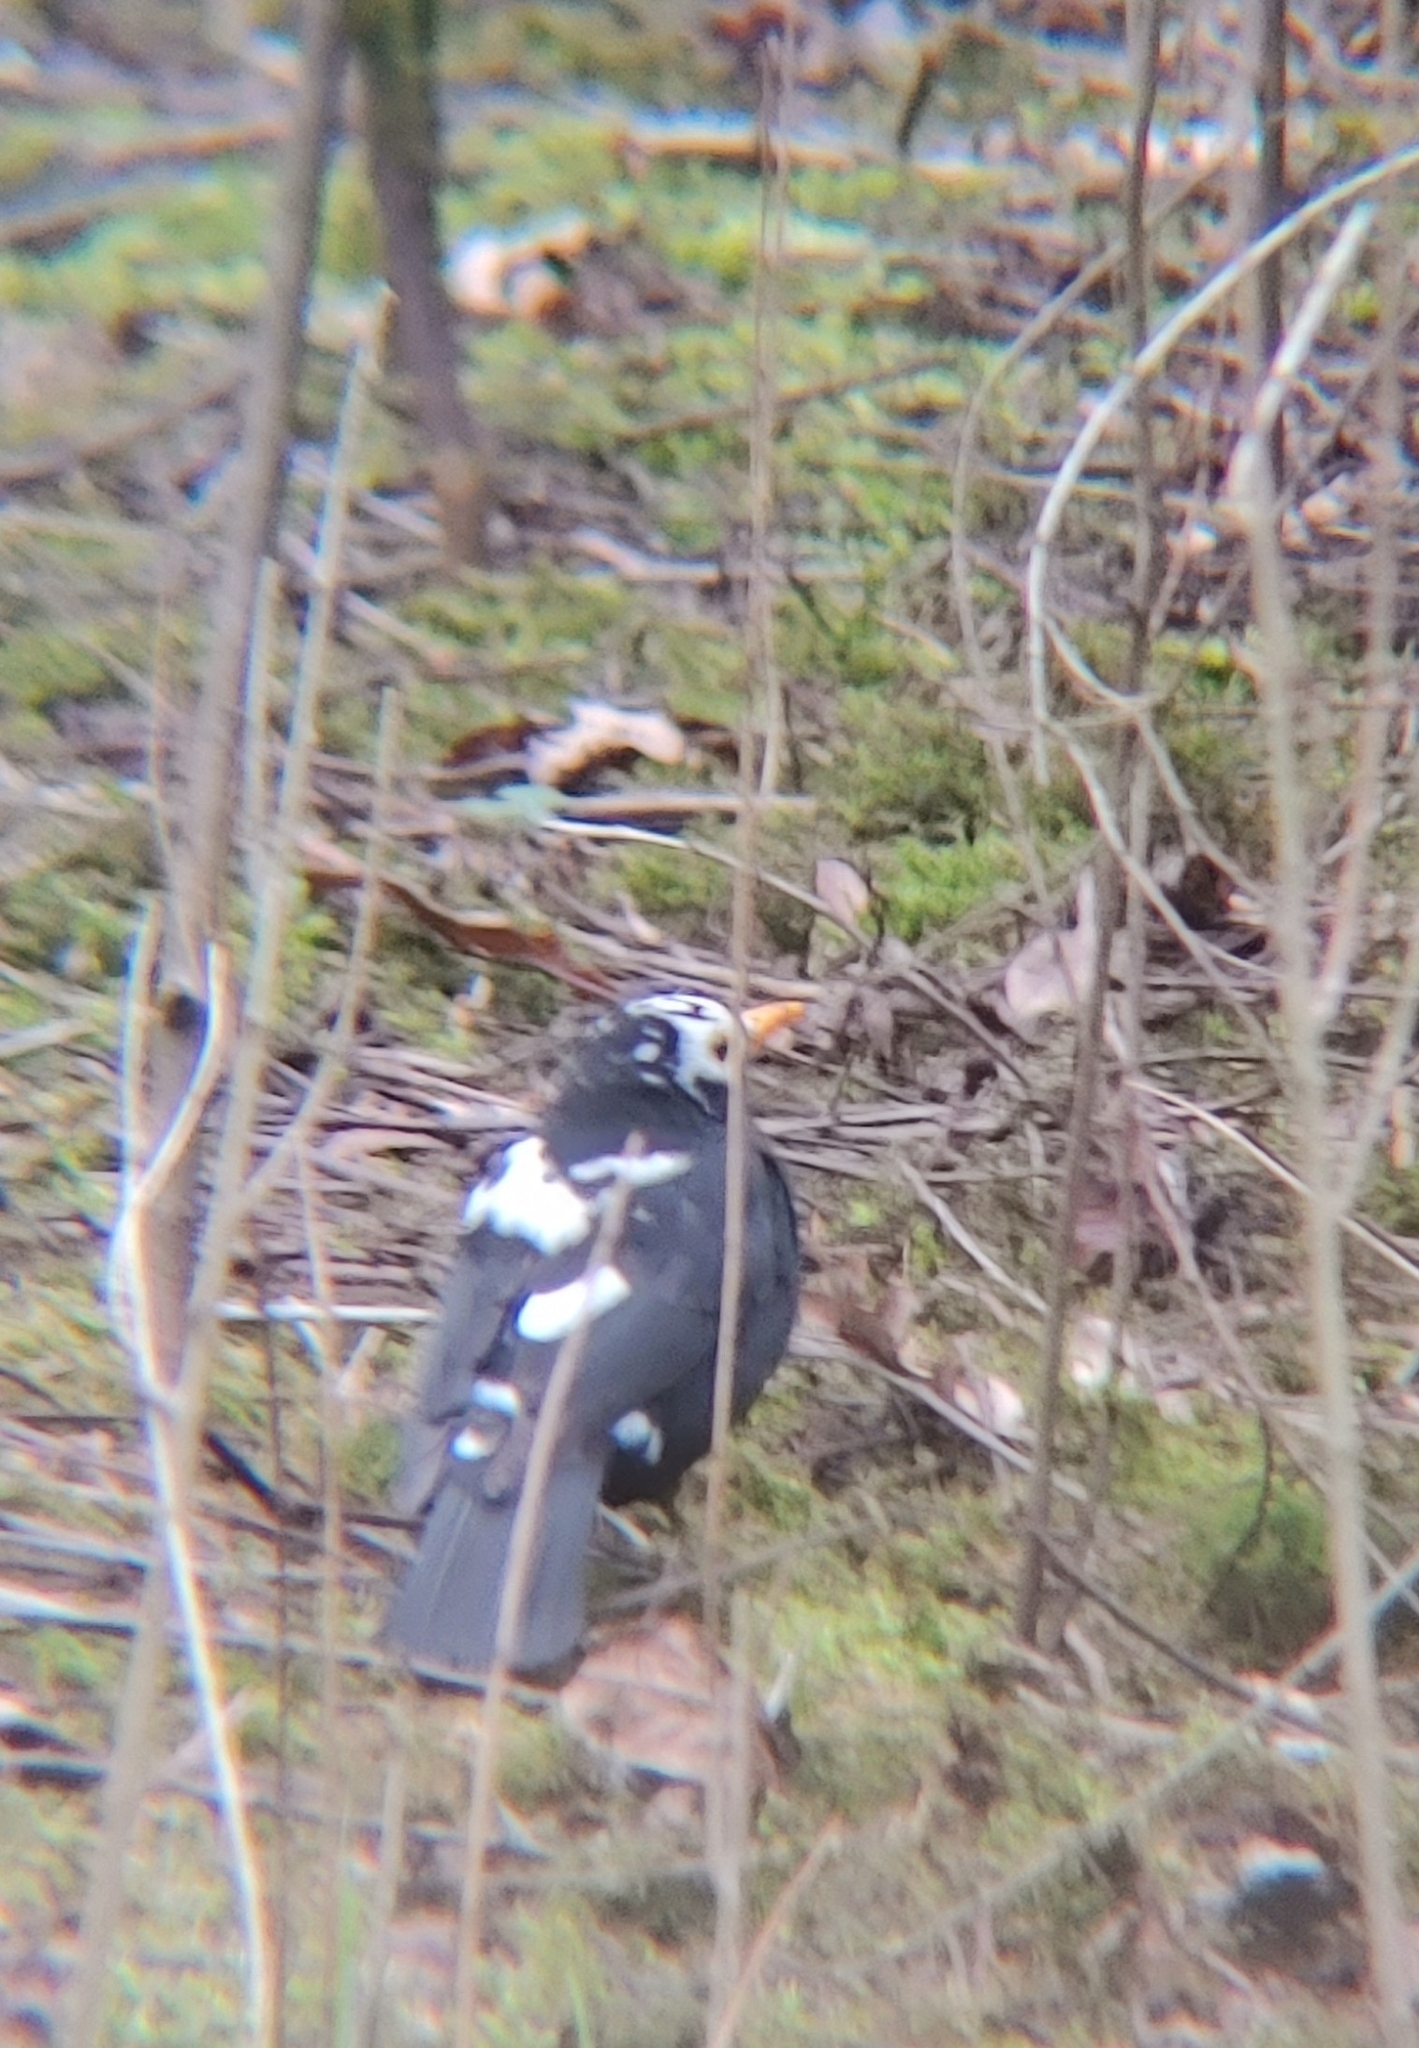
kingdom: Animalia
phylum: Chordata
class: Aves
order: Passeriformes
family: Turdidae
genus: Turdus
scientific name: Turdus merula
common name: Common blackbird
